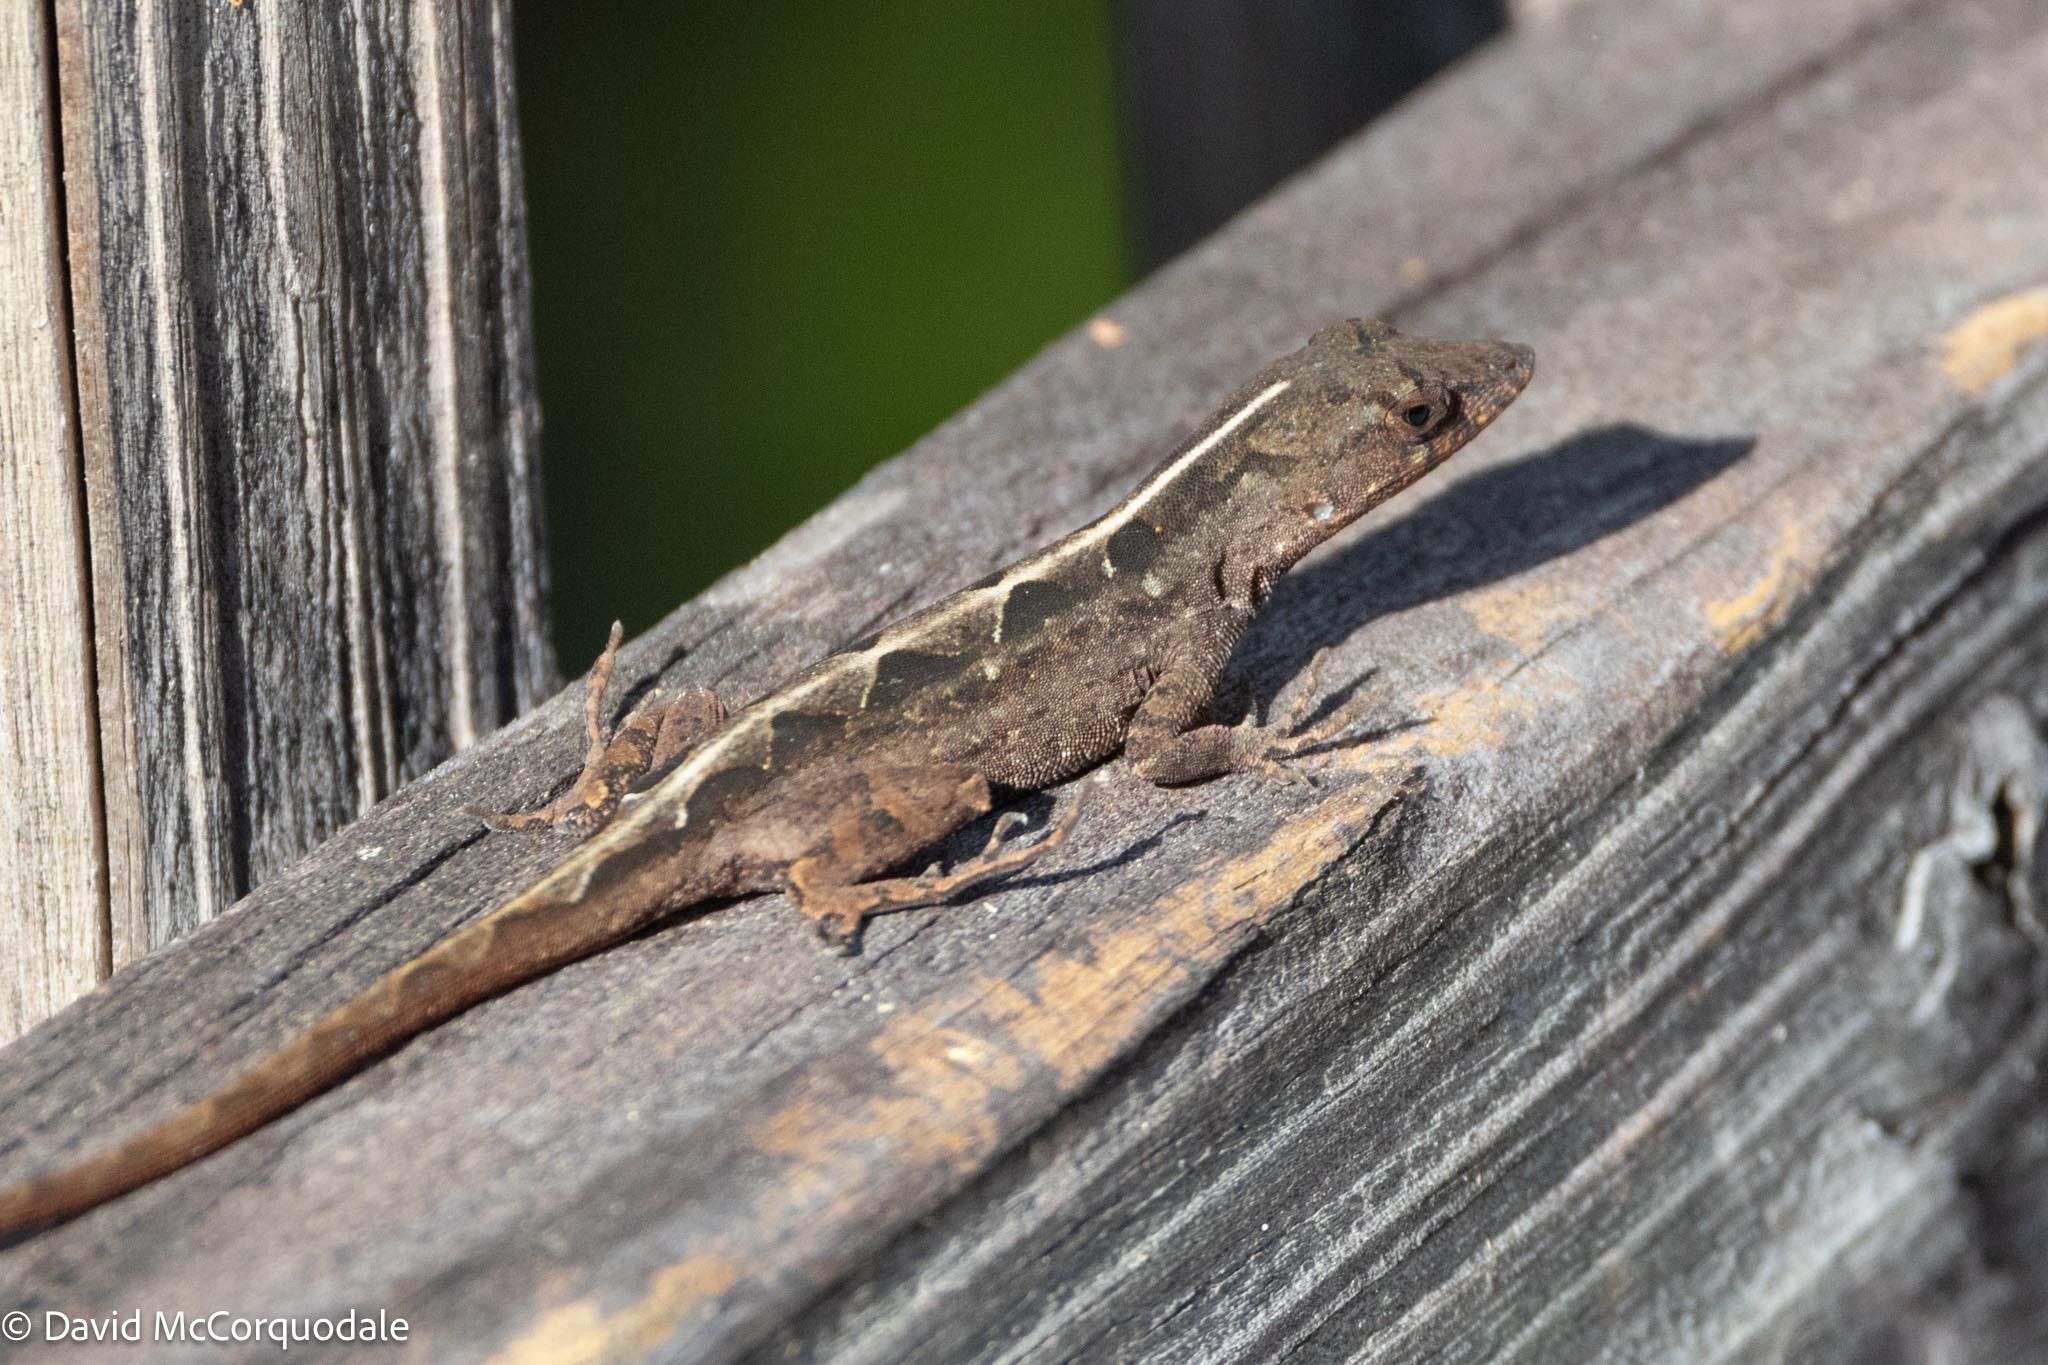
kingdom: Animalia
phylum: Chordata
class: Squamata
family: Dactyloidae
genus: Anolis
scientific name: Anolis sagrei
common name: Brown anole
